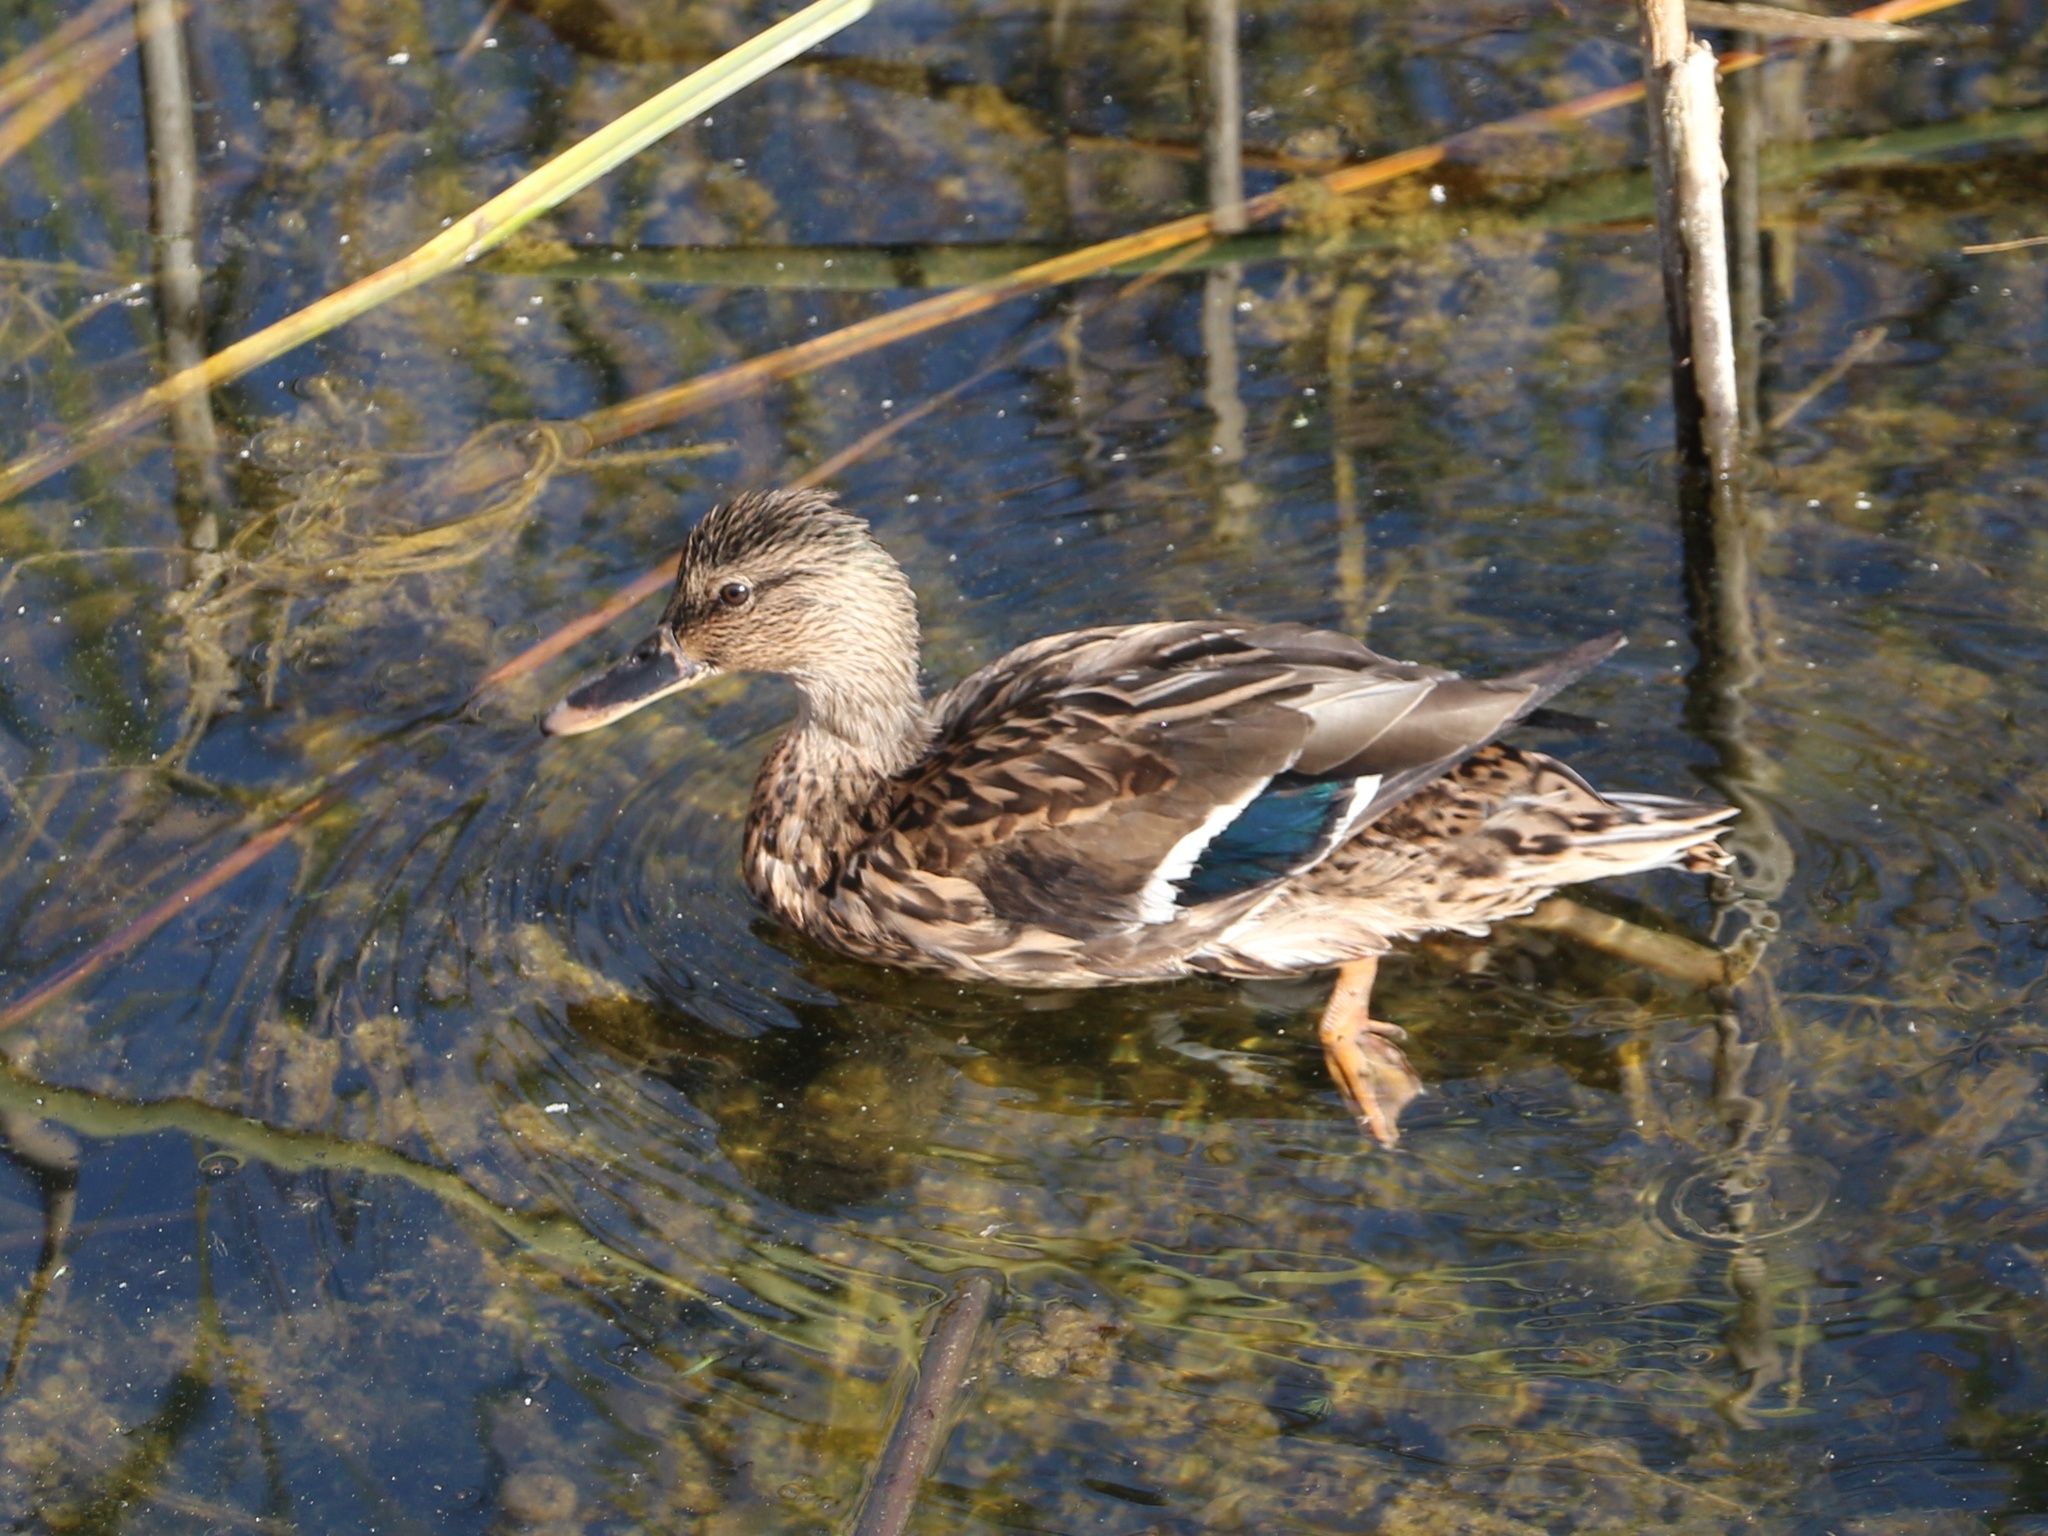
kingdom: Animalia
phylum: Chordata
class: Aves
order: Anseriformes
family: Anatidae
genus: Anas
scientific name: Anas platyrhynchos
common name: Mallard
